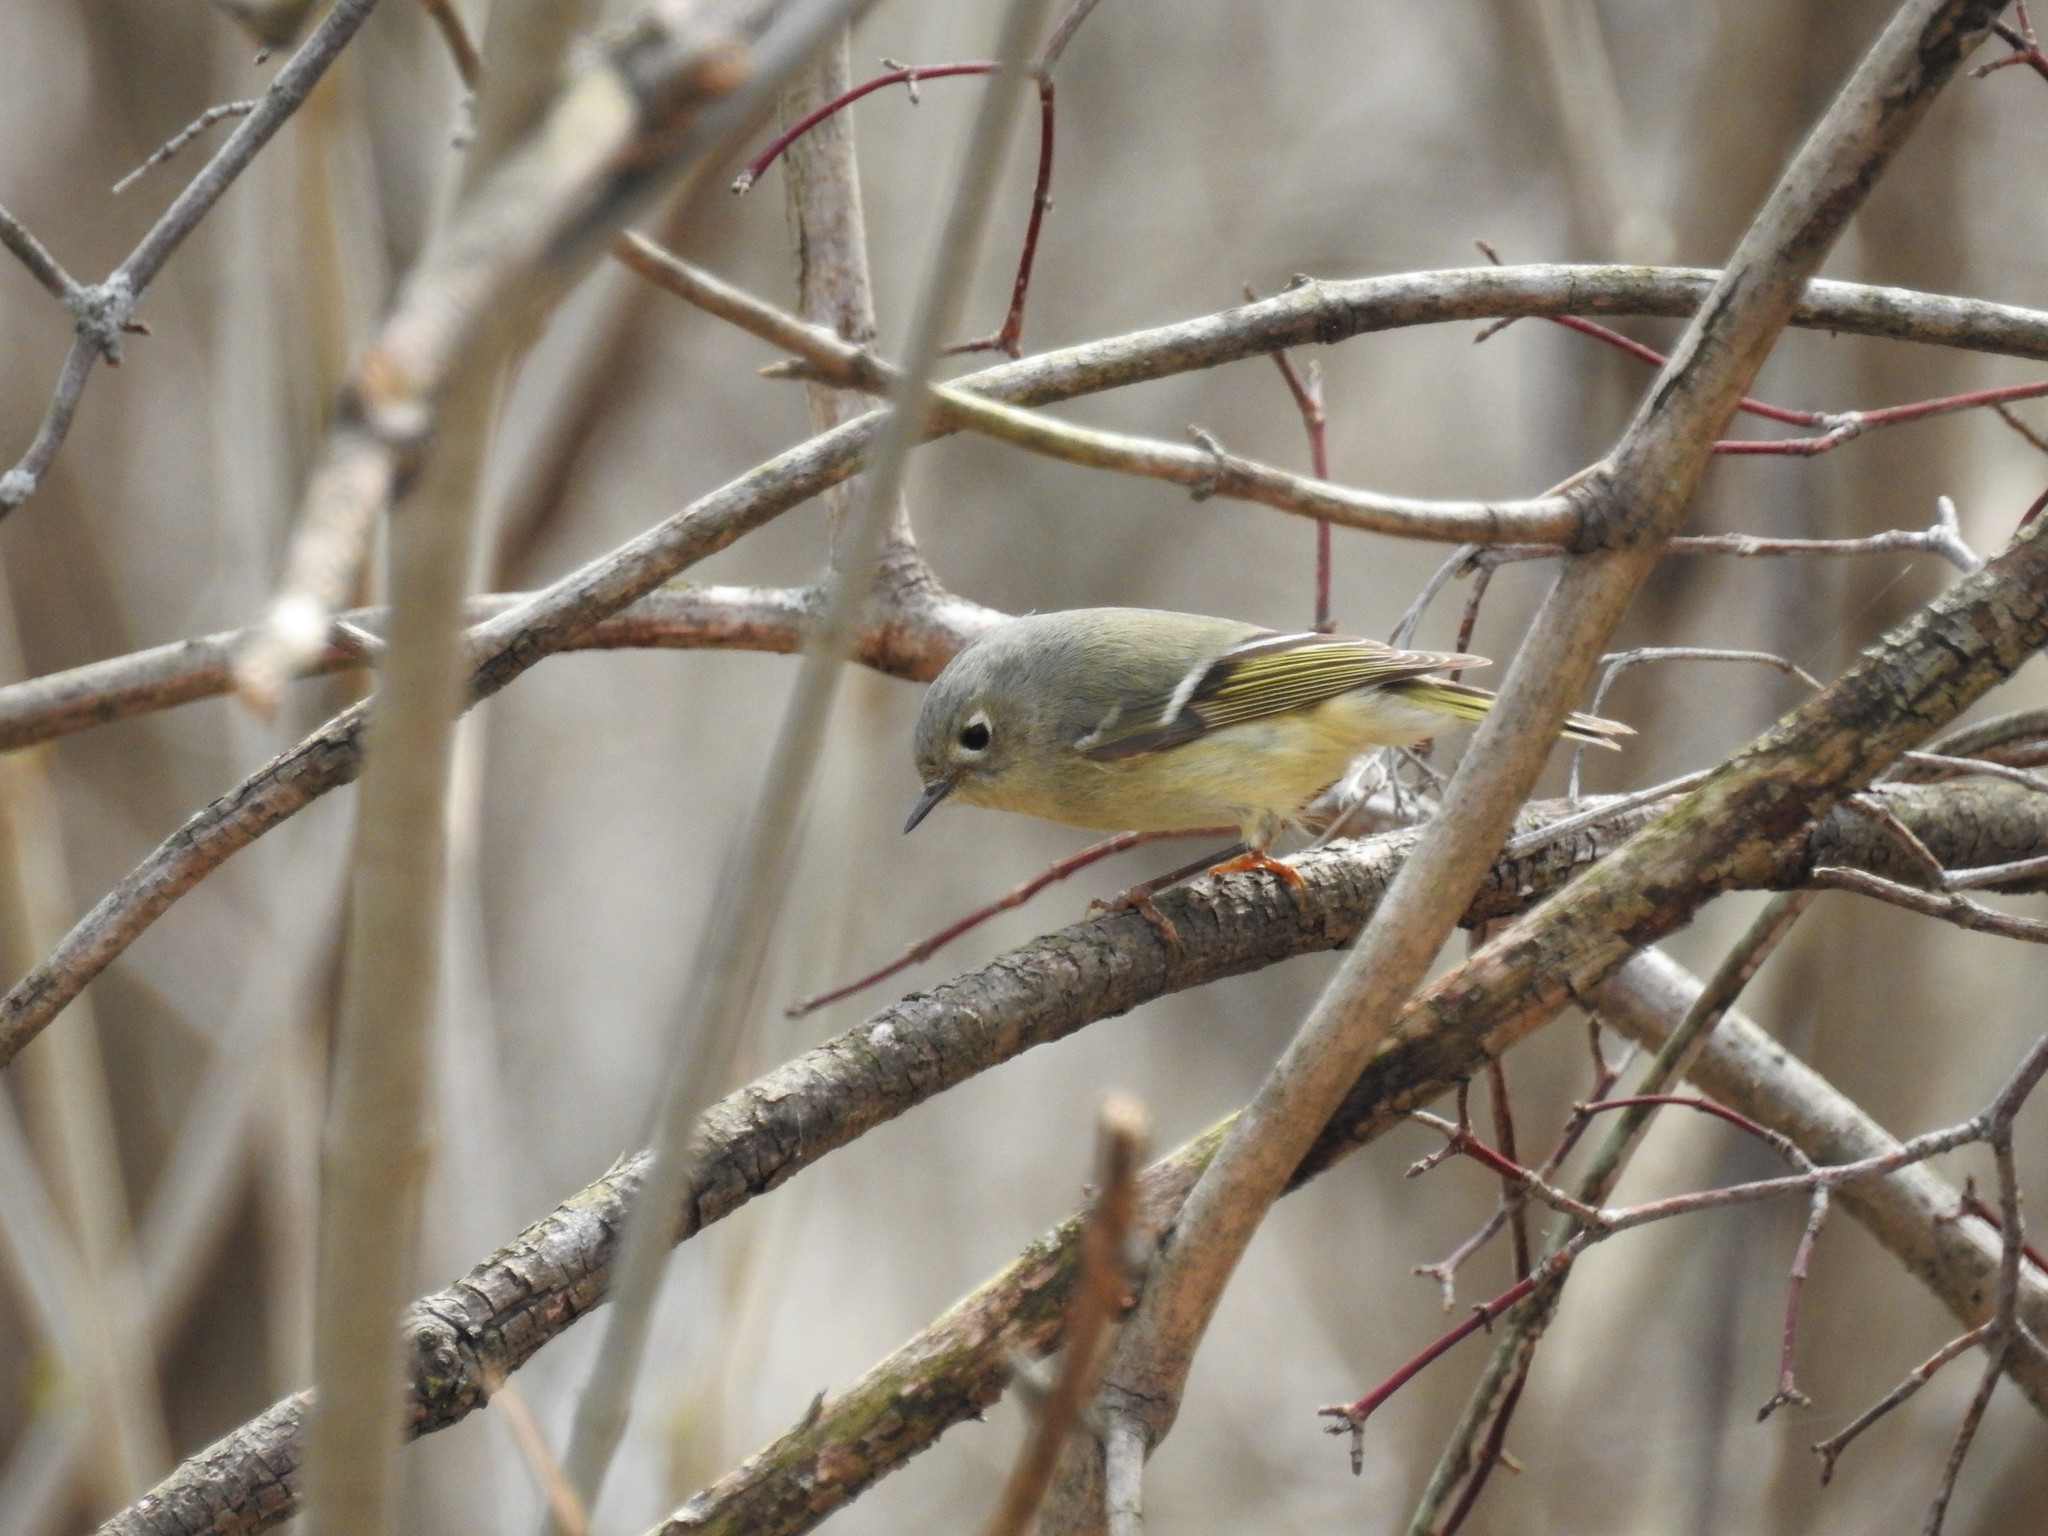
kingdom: Animalia
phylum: Chordata
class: Aves
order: Passeriformes
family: Regulidae
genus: Regulus
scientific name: Regulus calendula
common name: Ruby-crowned kinglet
